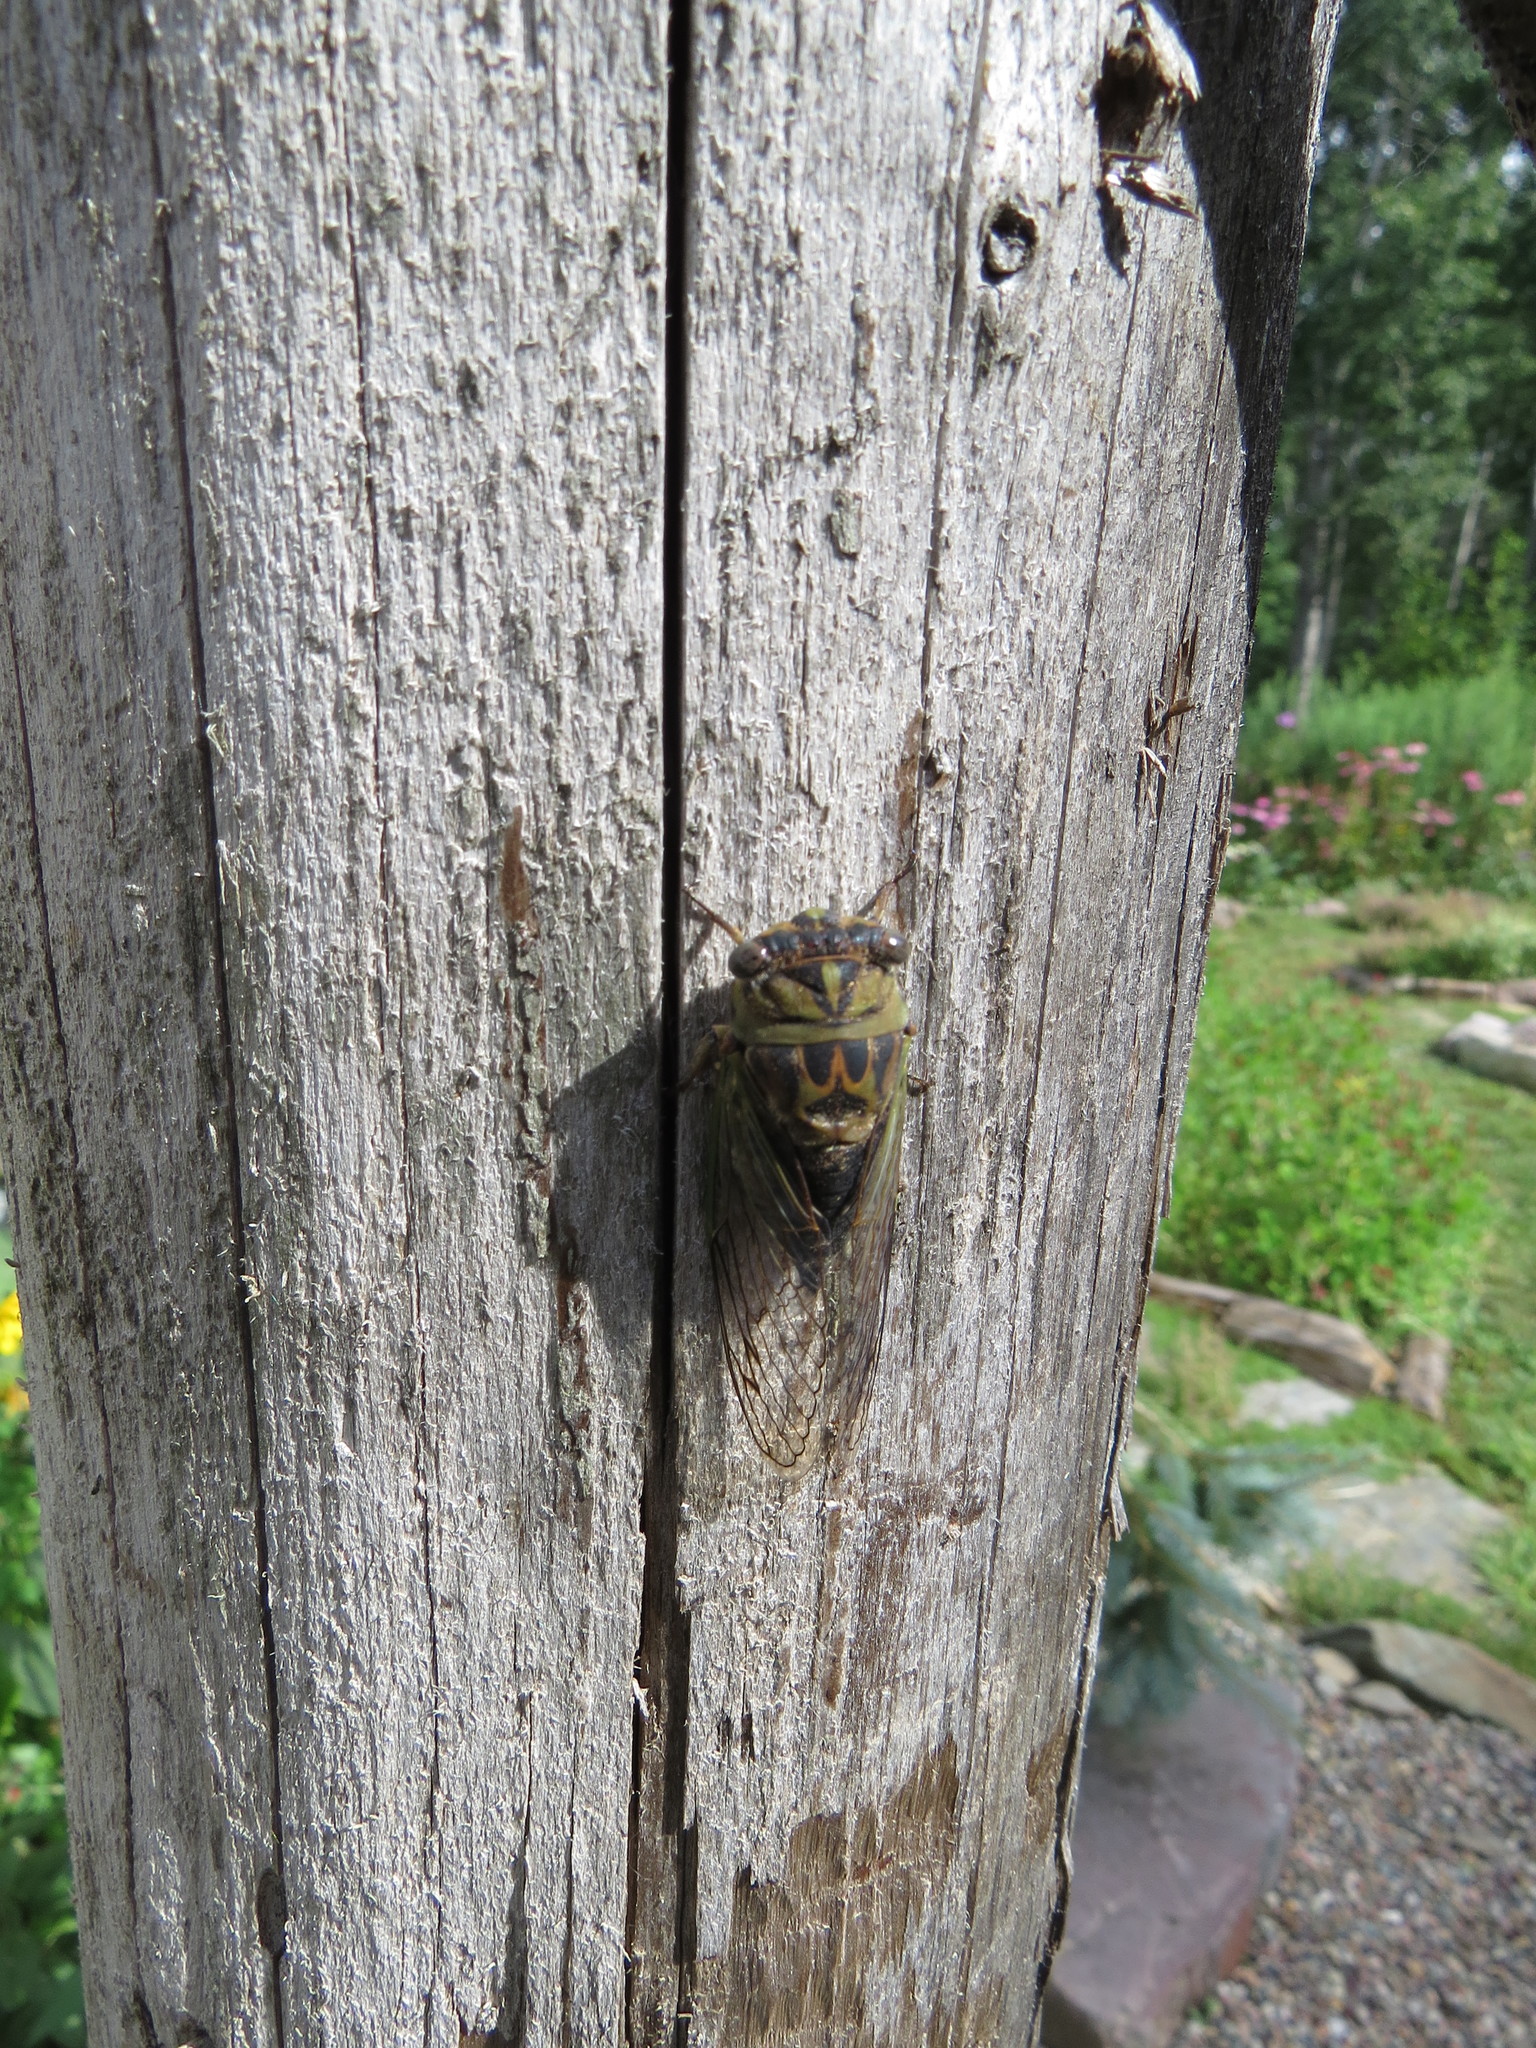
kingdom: Animalia
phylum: Arthropoda
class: Insecta
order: Hemiptera
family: Cicadidae
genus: Neotibicen
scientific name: Neotibicen canicularis
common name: God-day cicada
